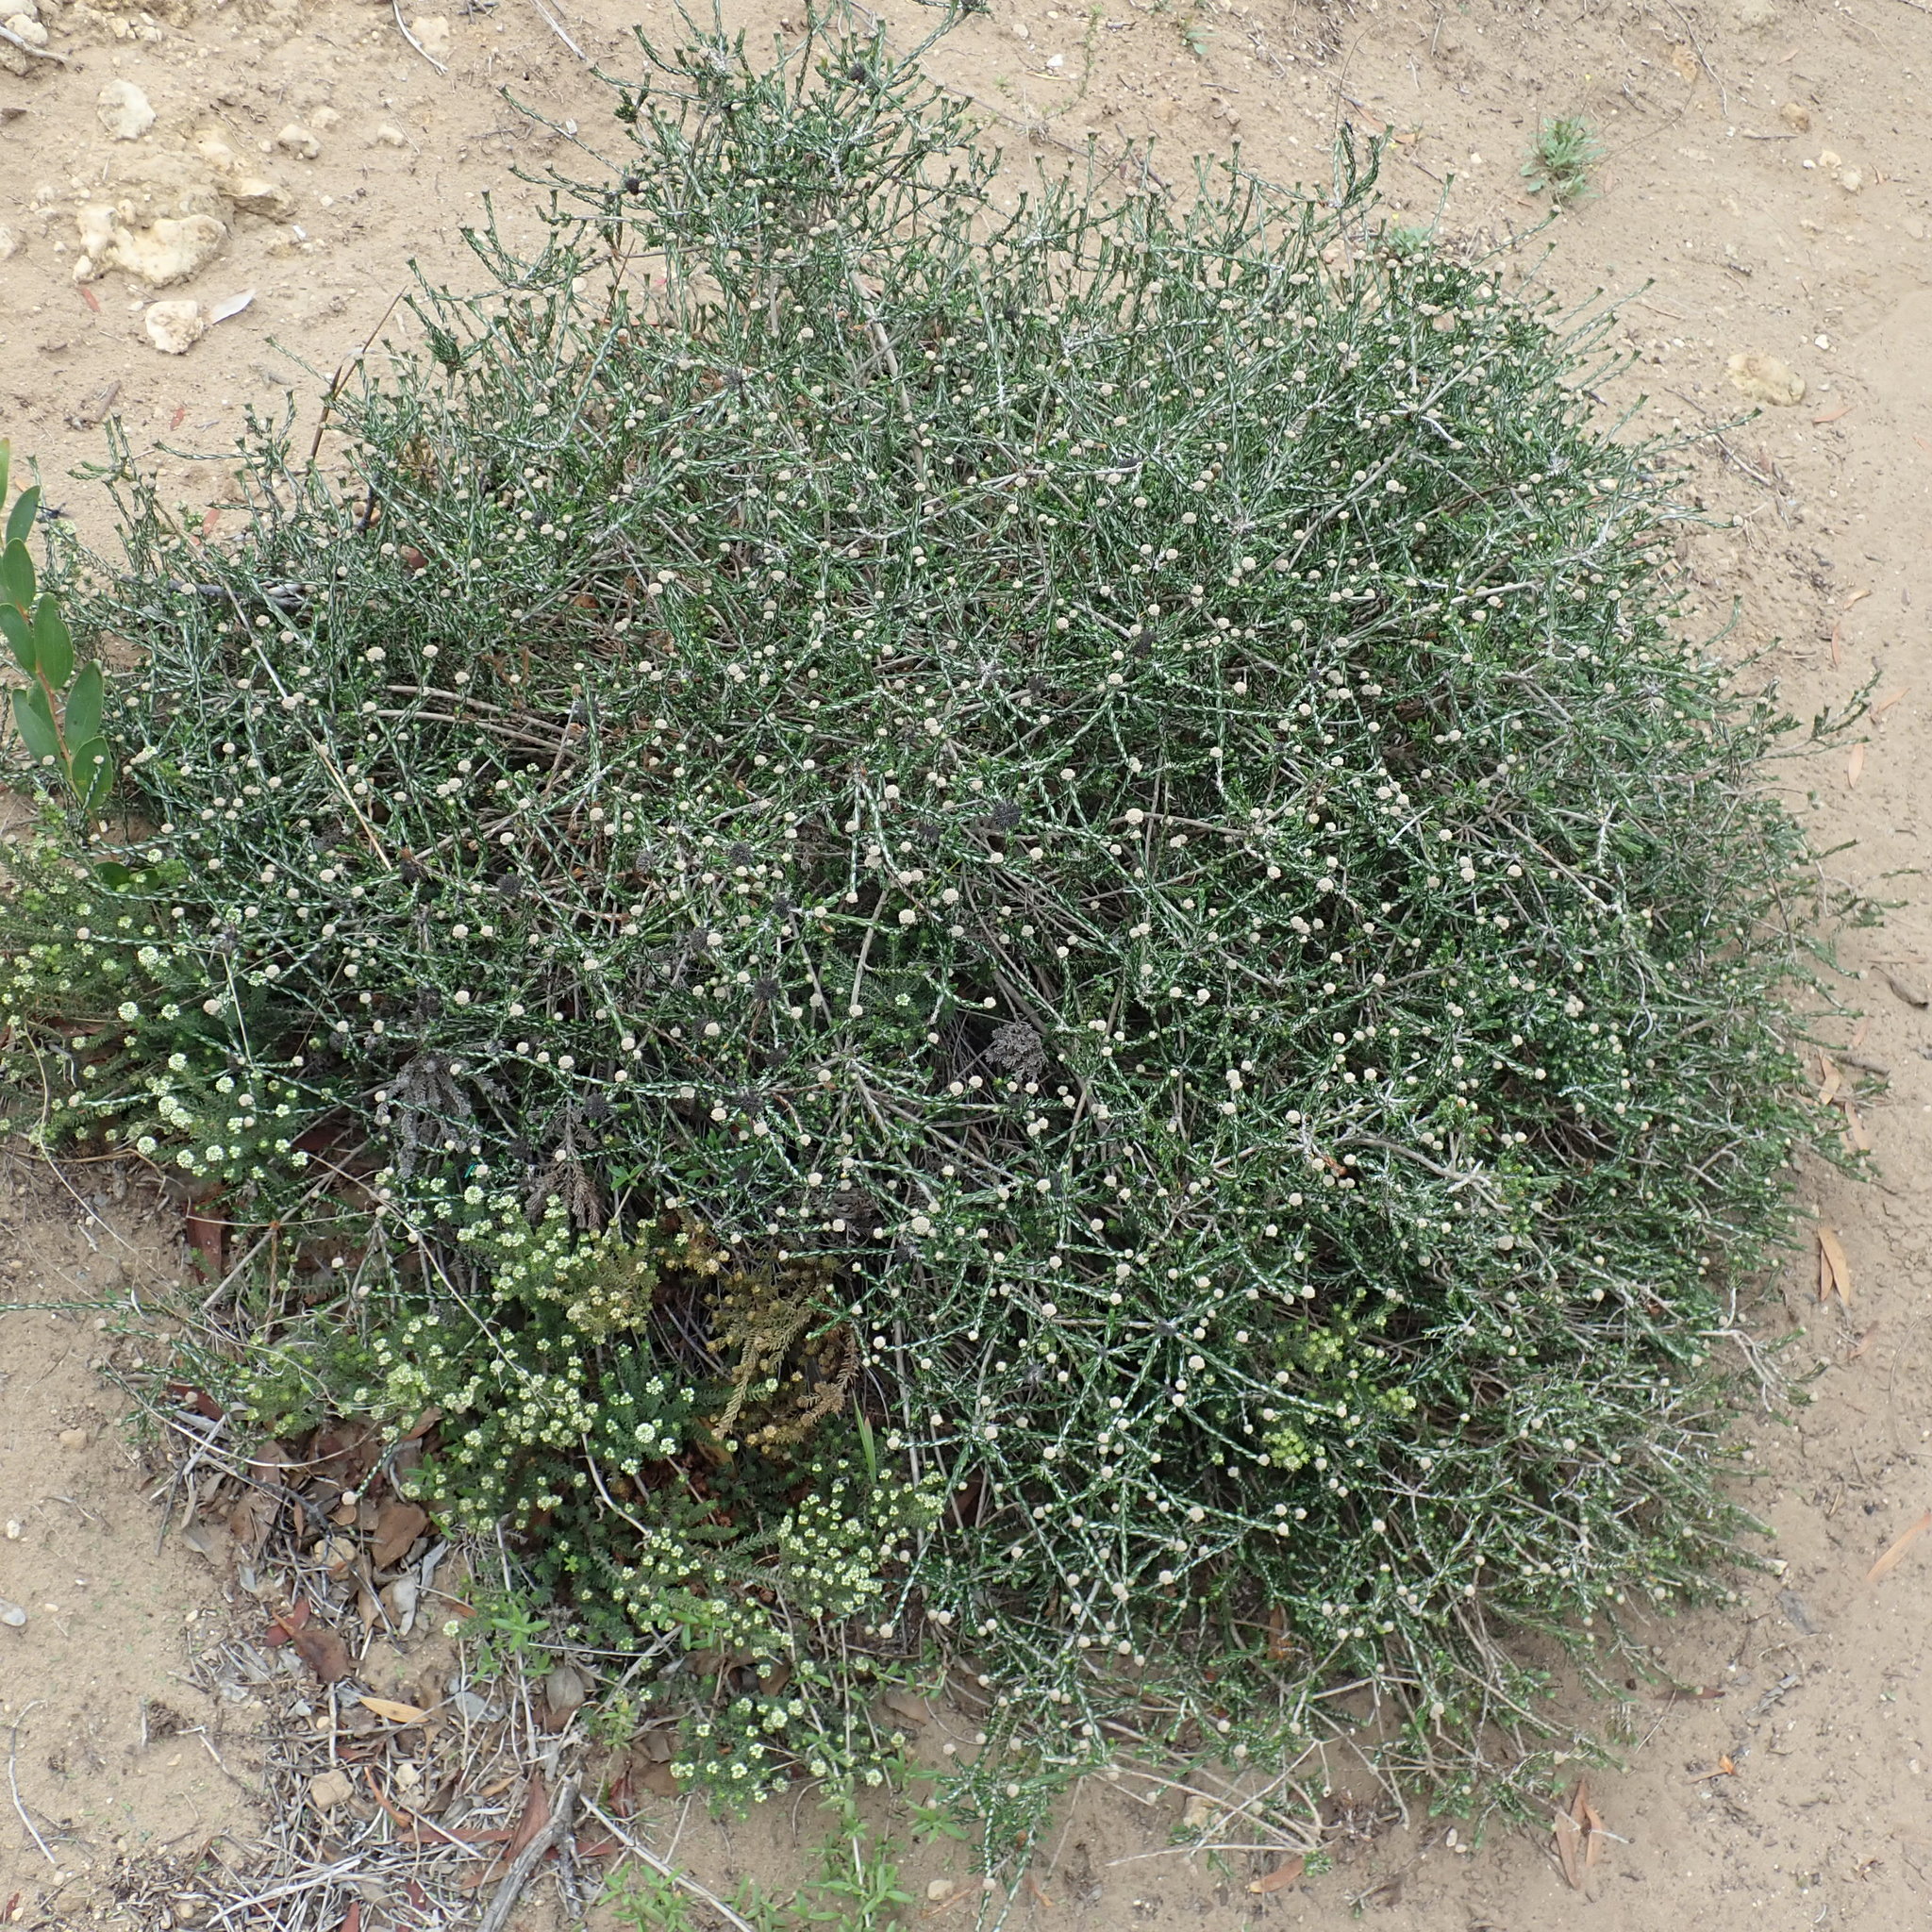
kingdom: Plantae
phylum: Tracheophyta
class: Magnoliopsida
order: Asterales
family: Asteraceae
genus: Metalasia
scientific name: Metalasia pungens
